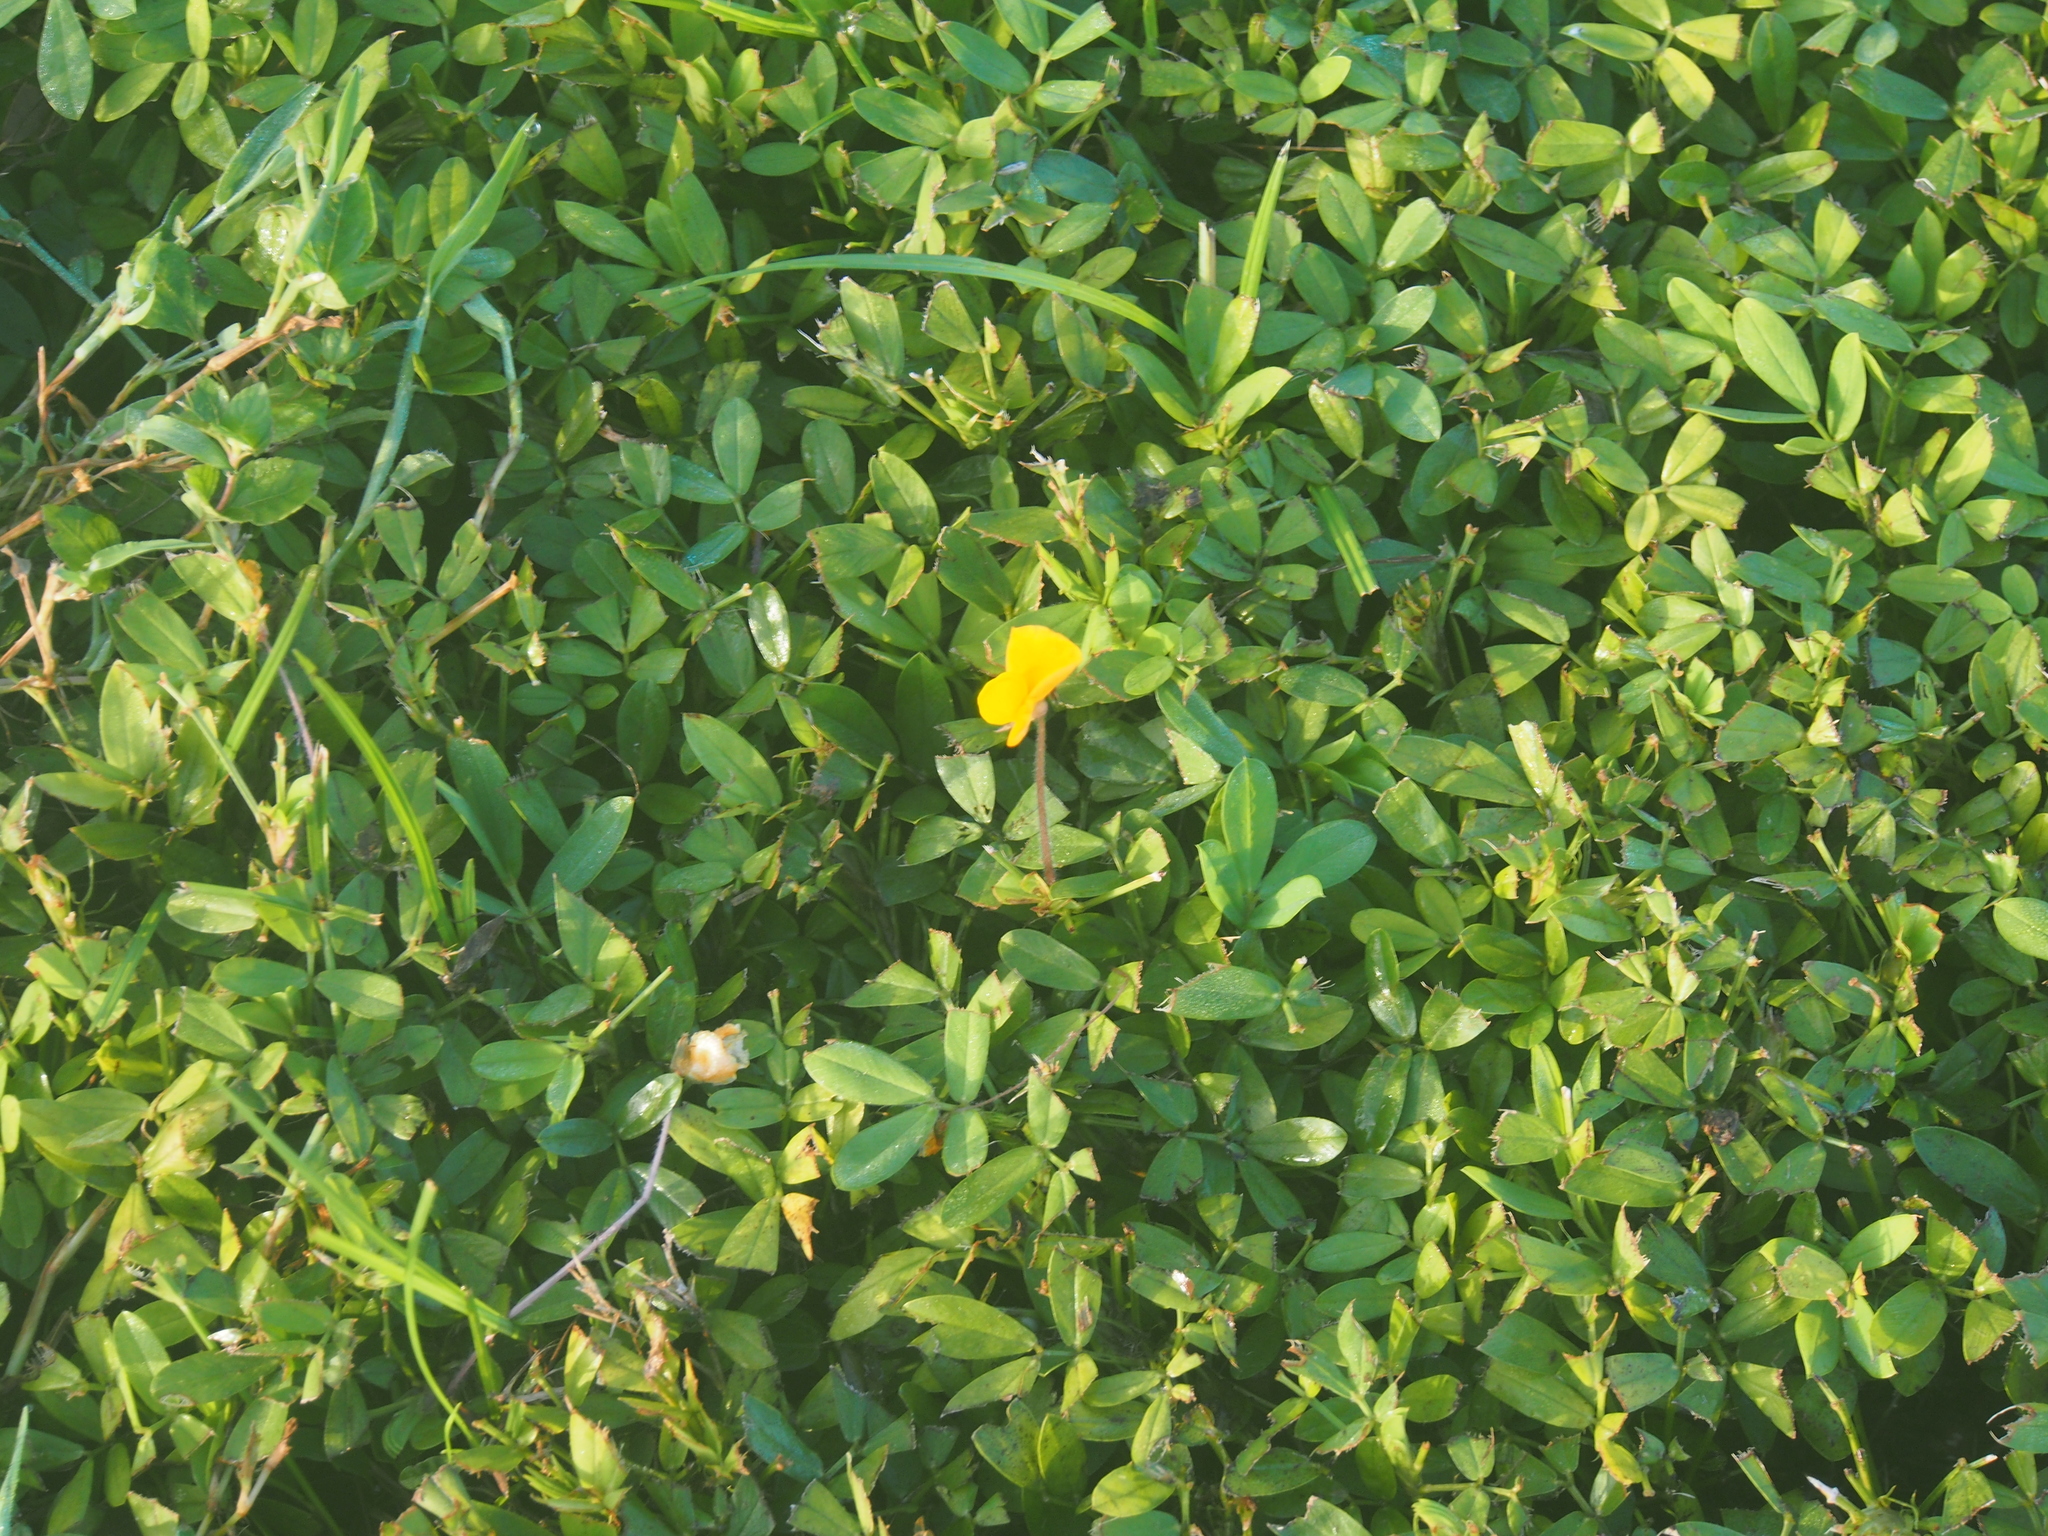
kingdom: Plantae
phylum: Tracheophyta
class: Magnoliopsida
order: Fabales
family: Fabaceae
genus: Arachis
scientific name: Arachis glabrata
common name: Rhizoma peanut
